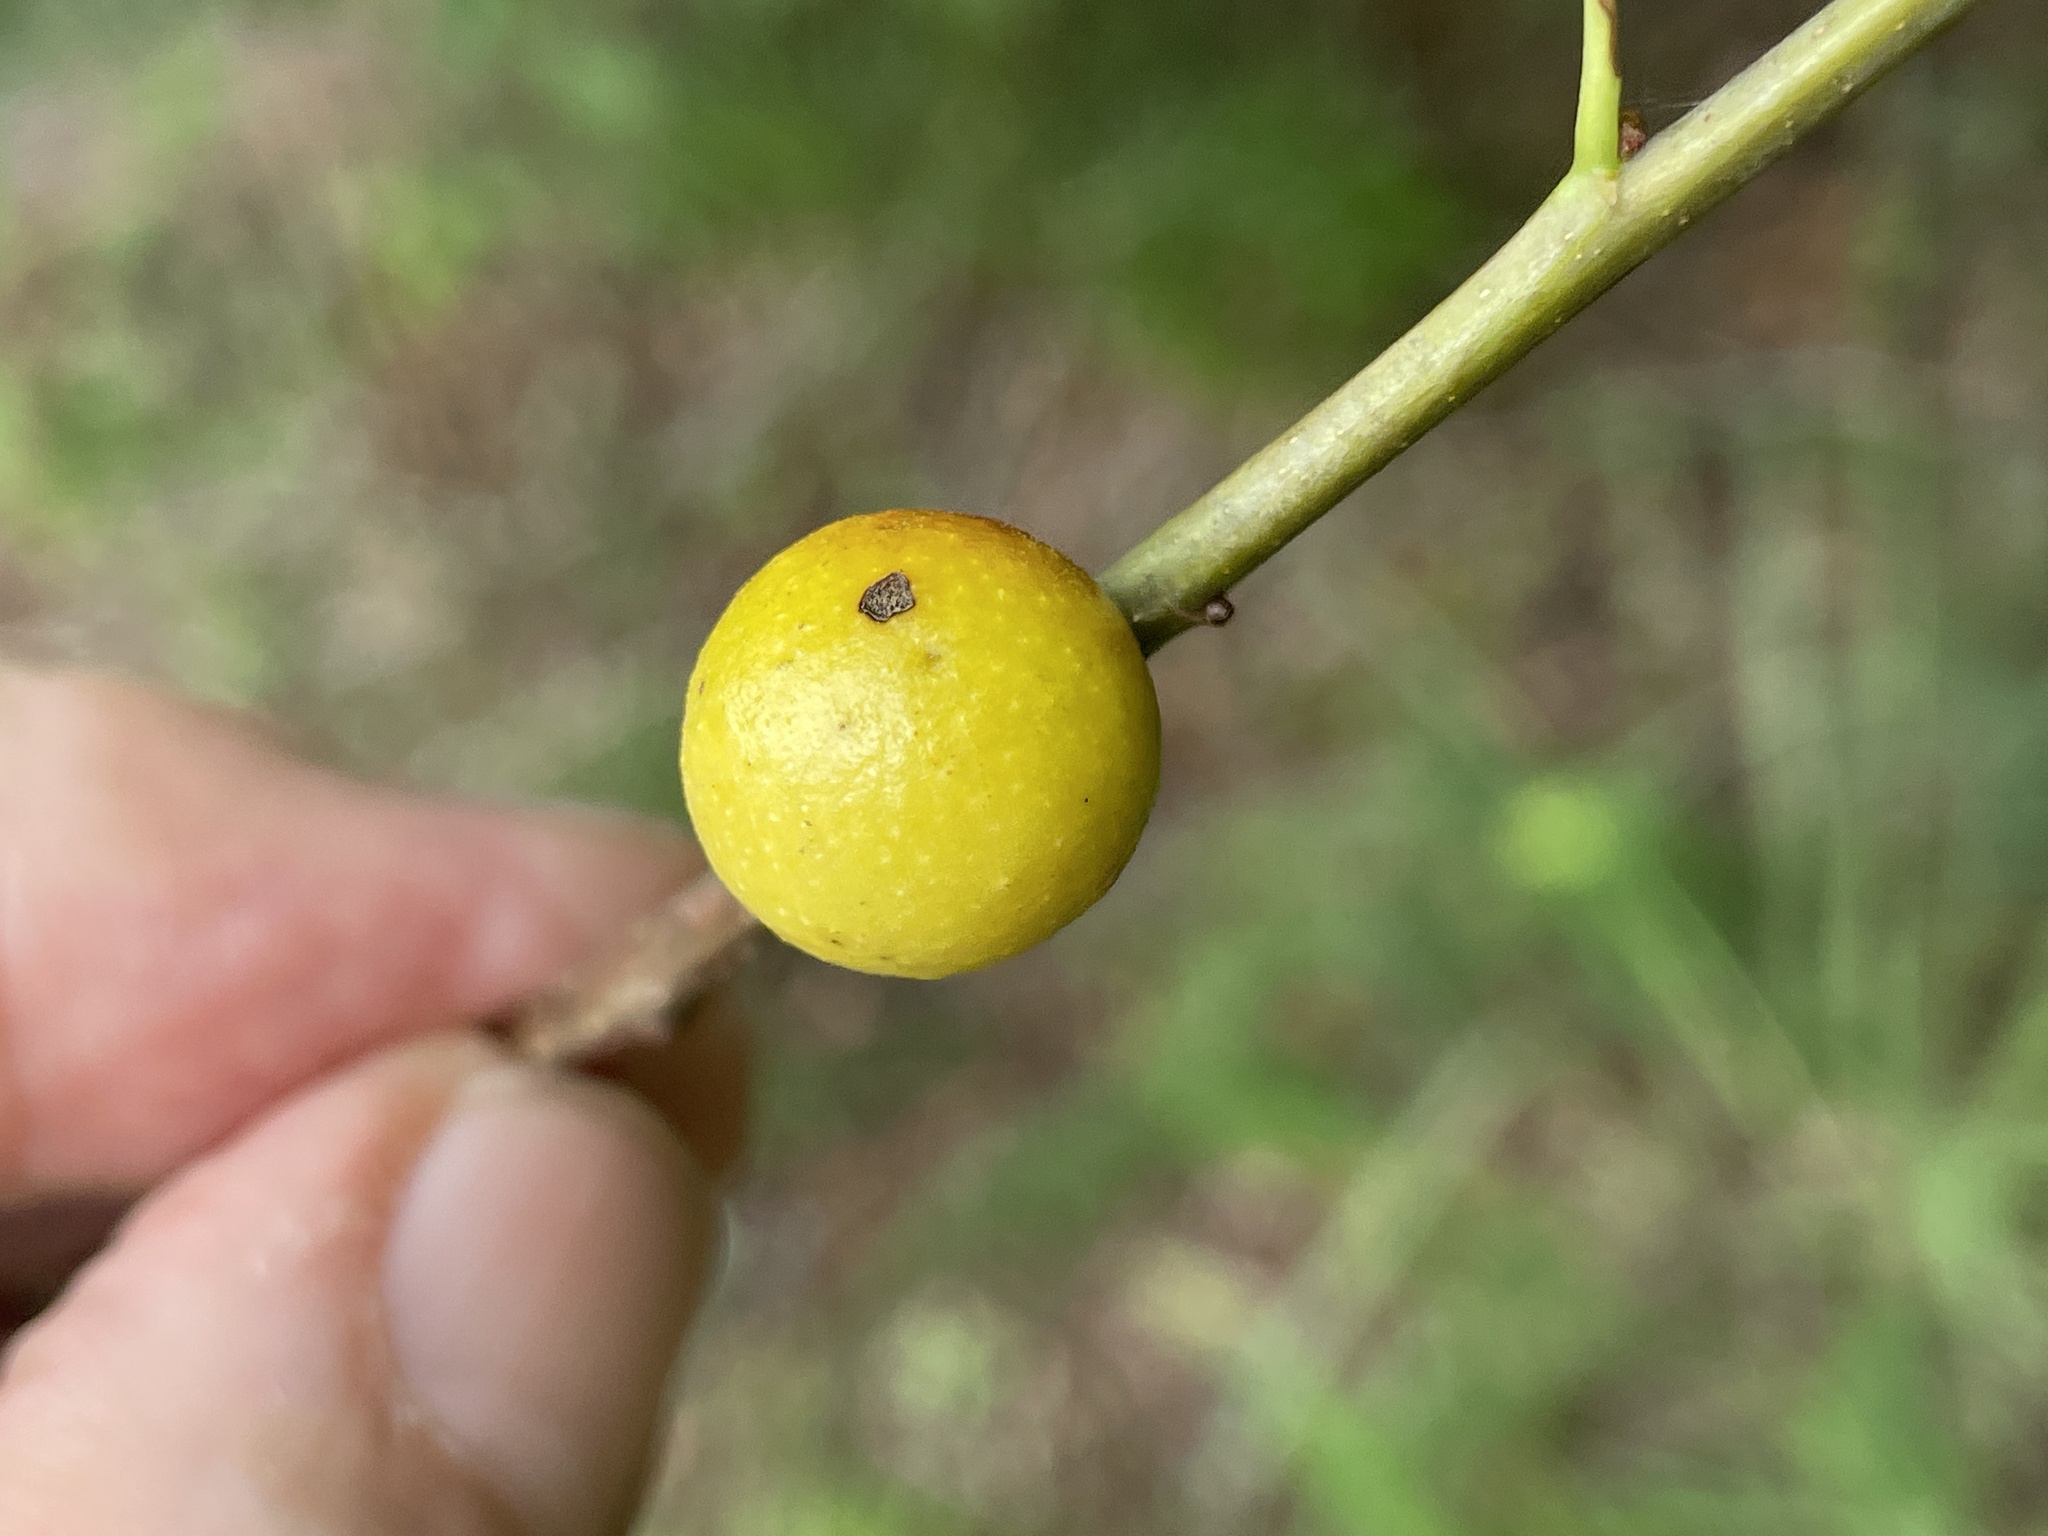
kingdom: Animalia
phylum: Arthropoda
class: Insecta
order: Hymenoptera
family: Cynipidae
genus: Disholcaspis
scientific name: Disholcaspis quercusglobulus
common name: Round bullet gall wasp
